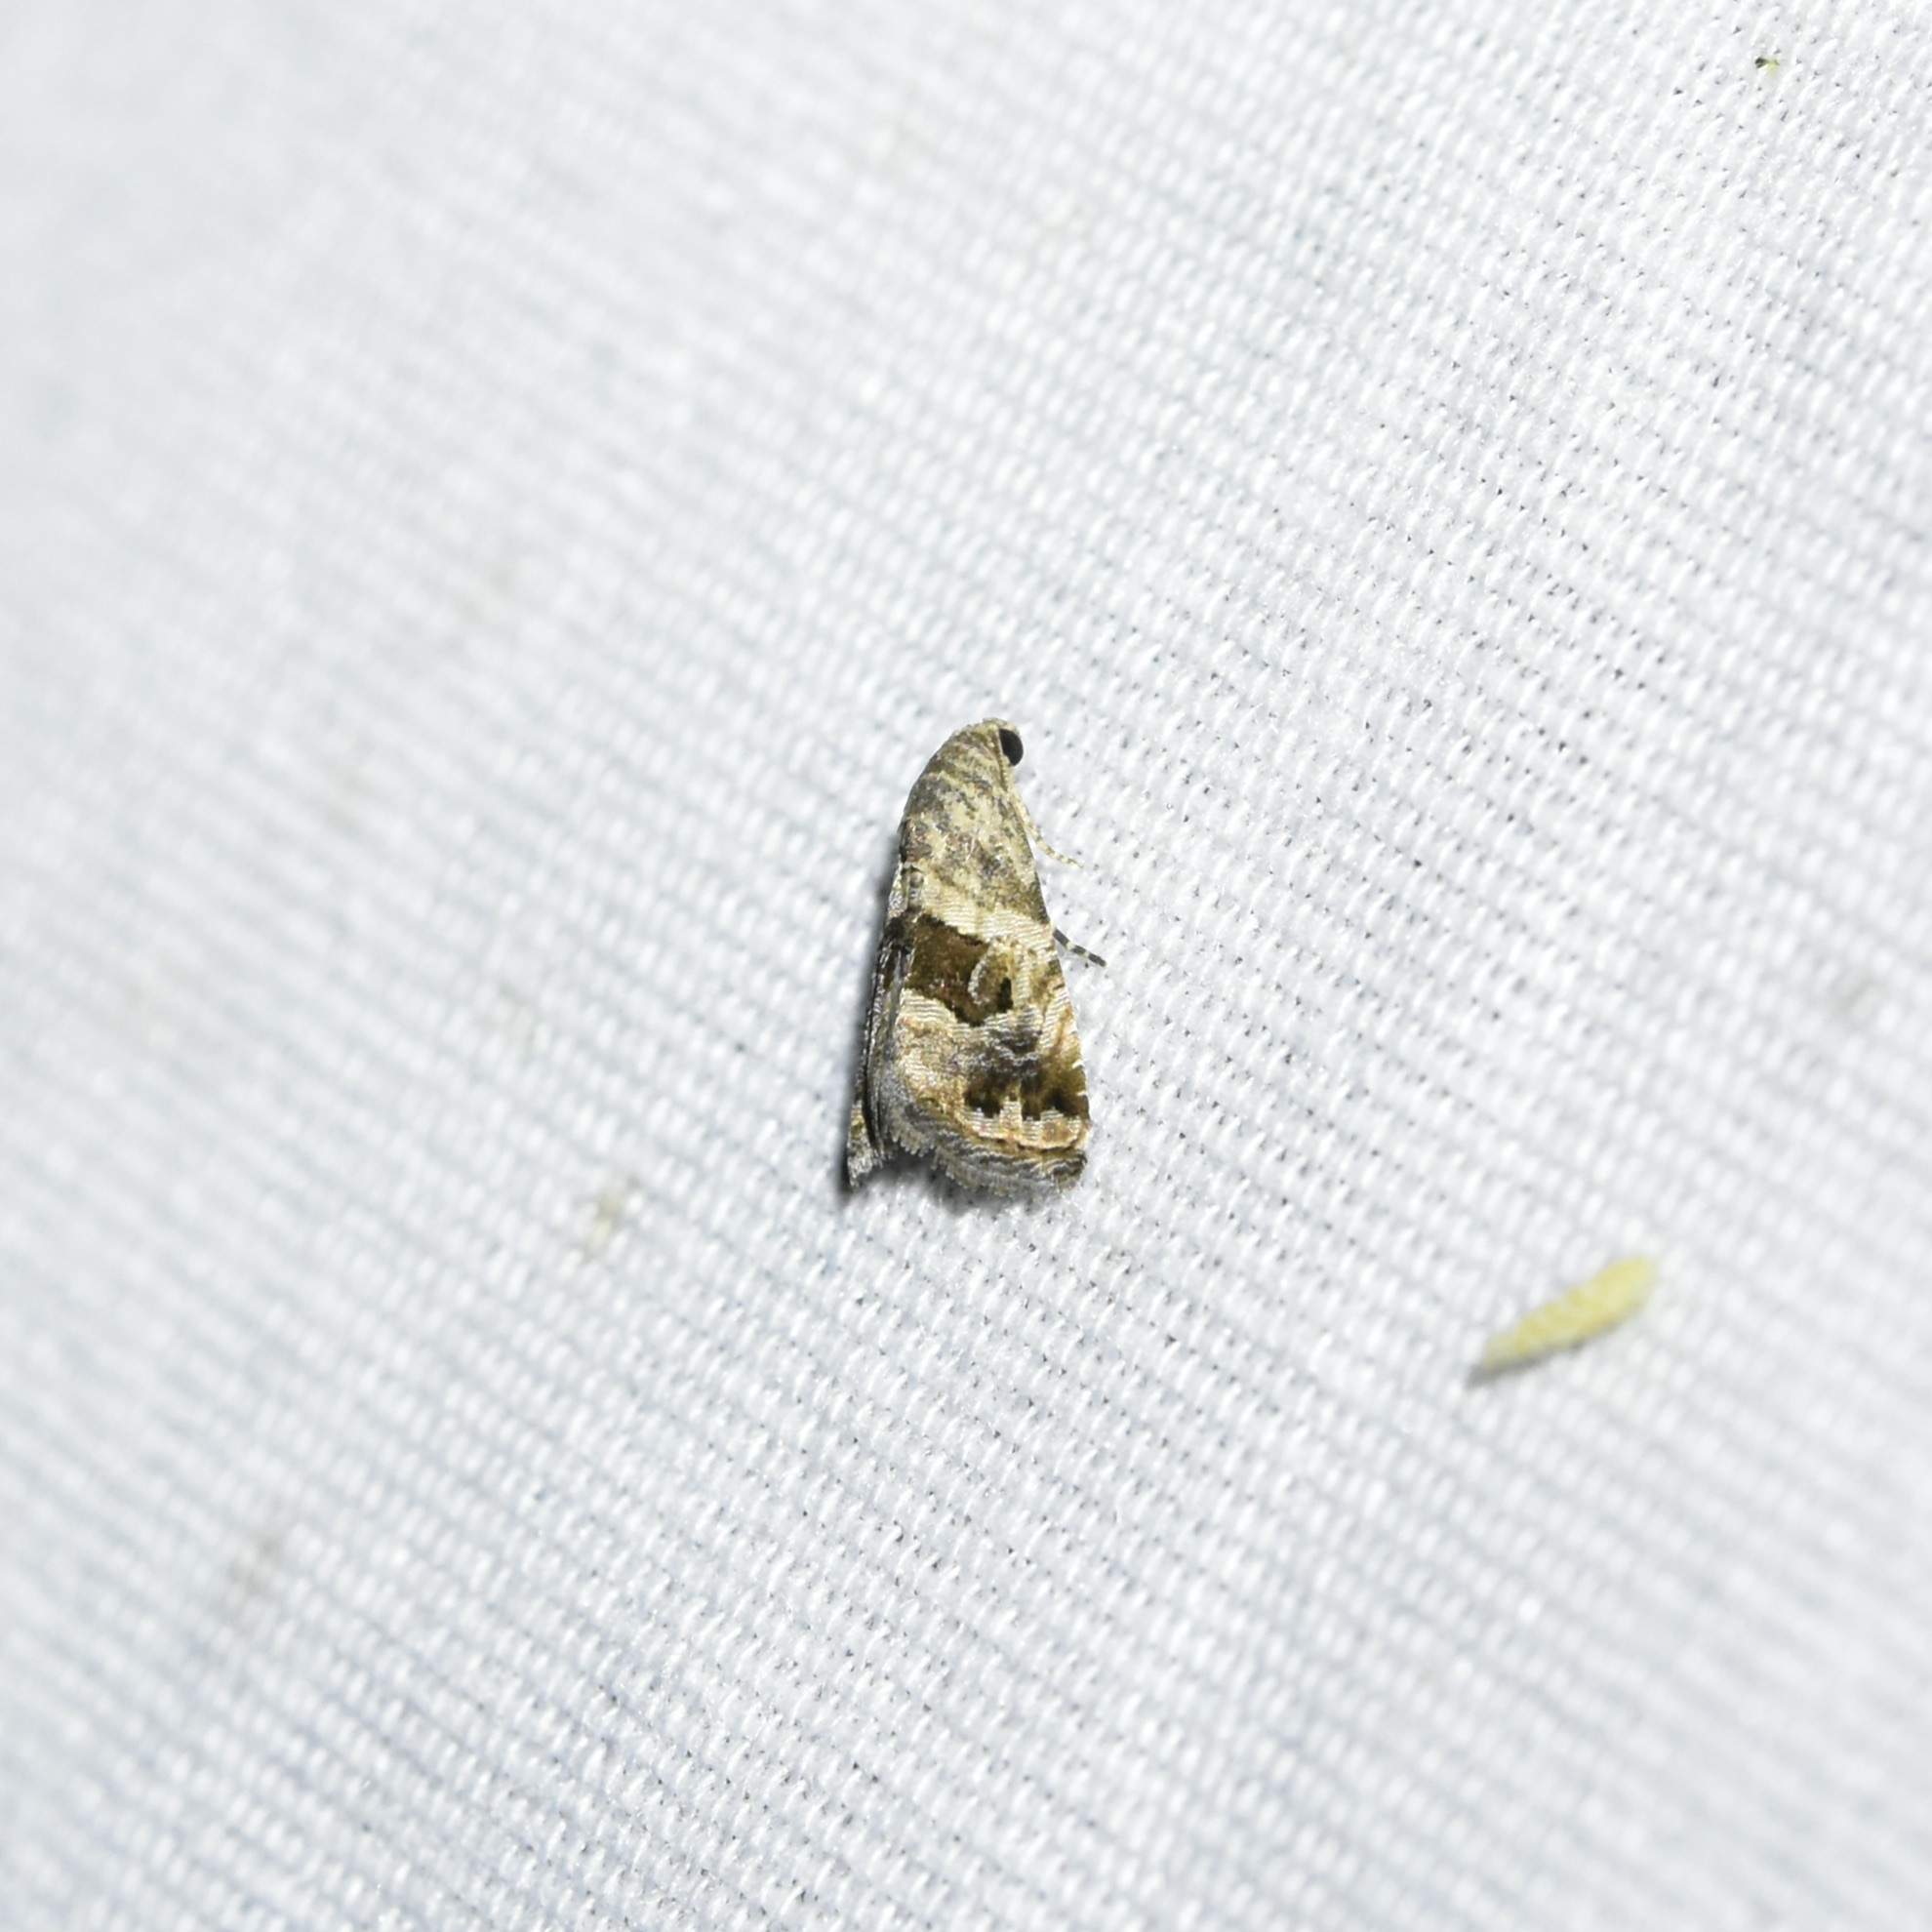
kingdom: Animalia
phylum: Arthropoda
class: Insecta
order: Lepidoptera
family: Noctuidae
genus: Tripudia
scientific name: Tripudia quadrifera
